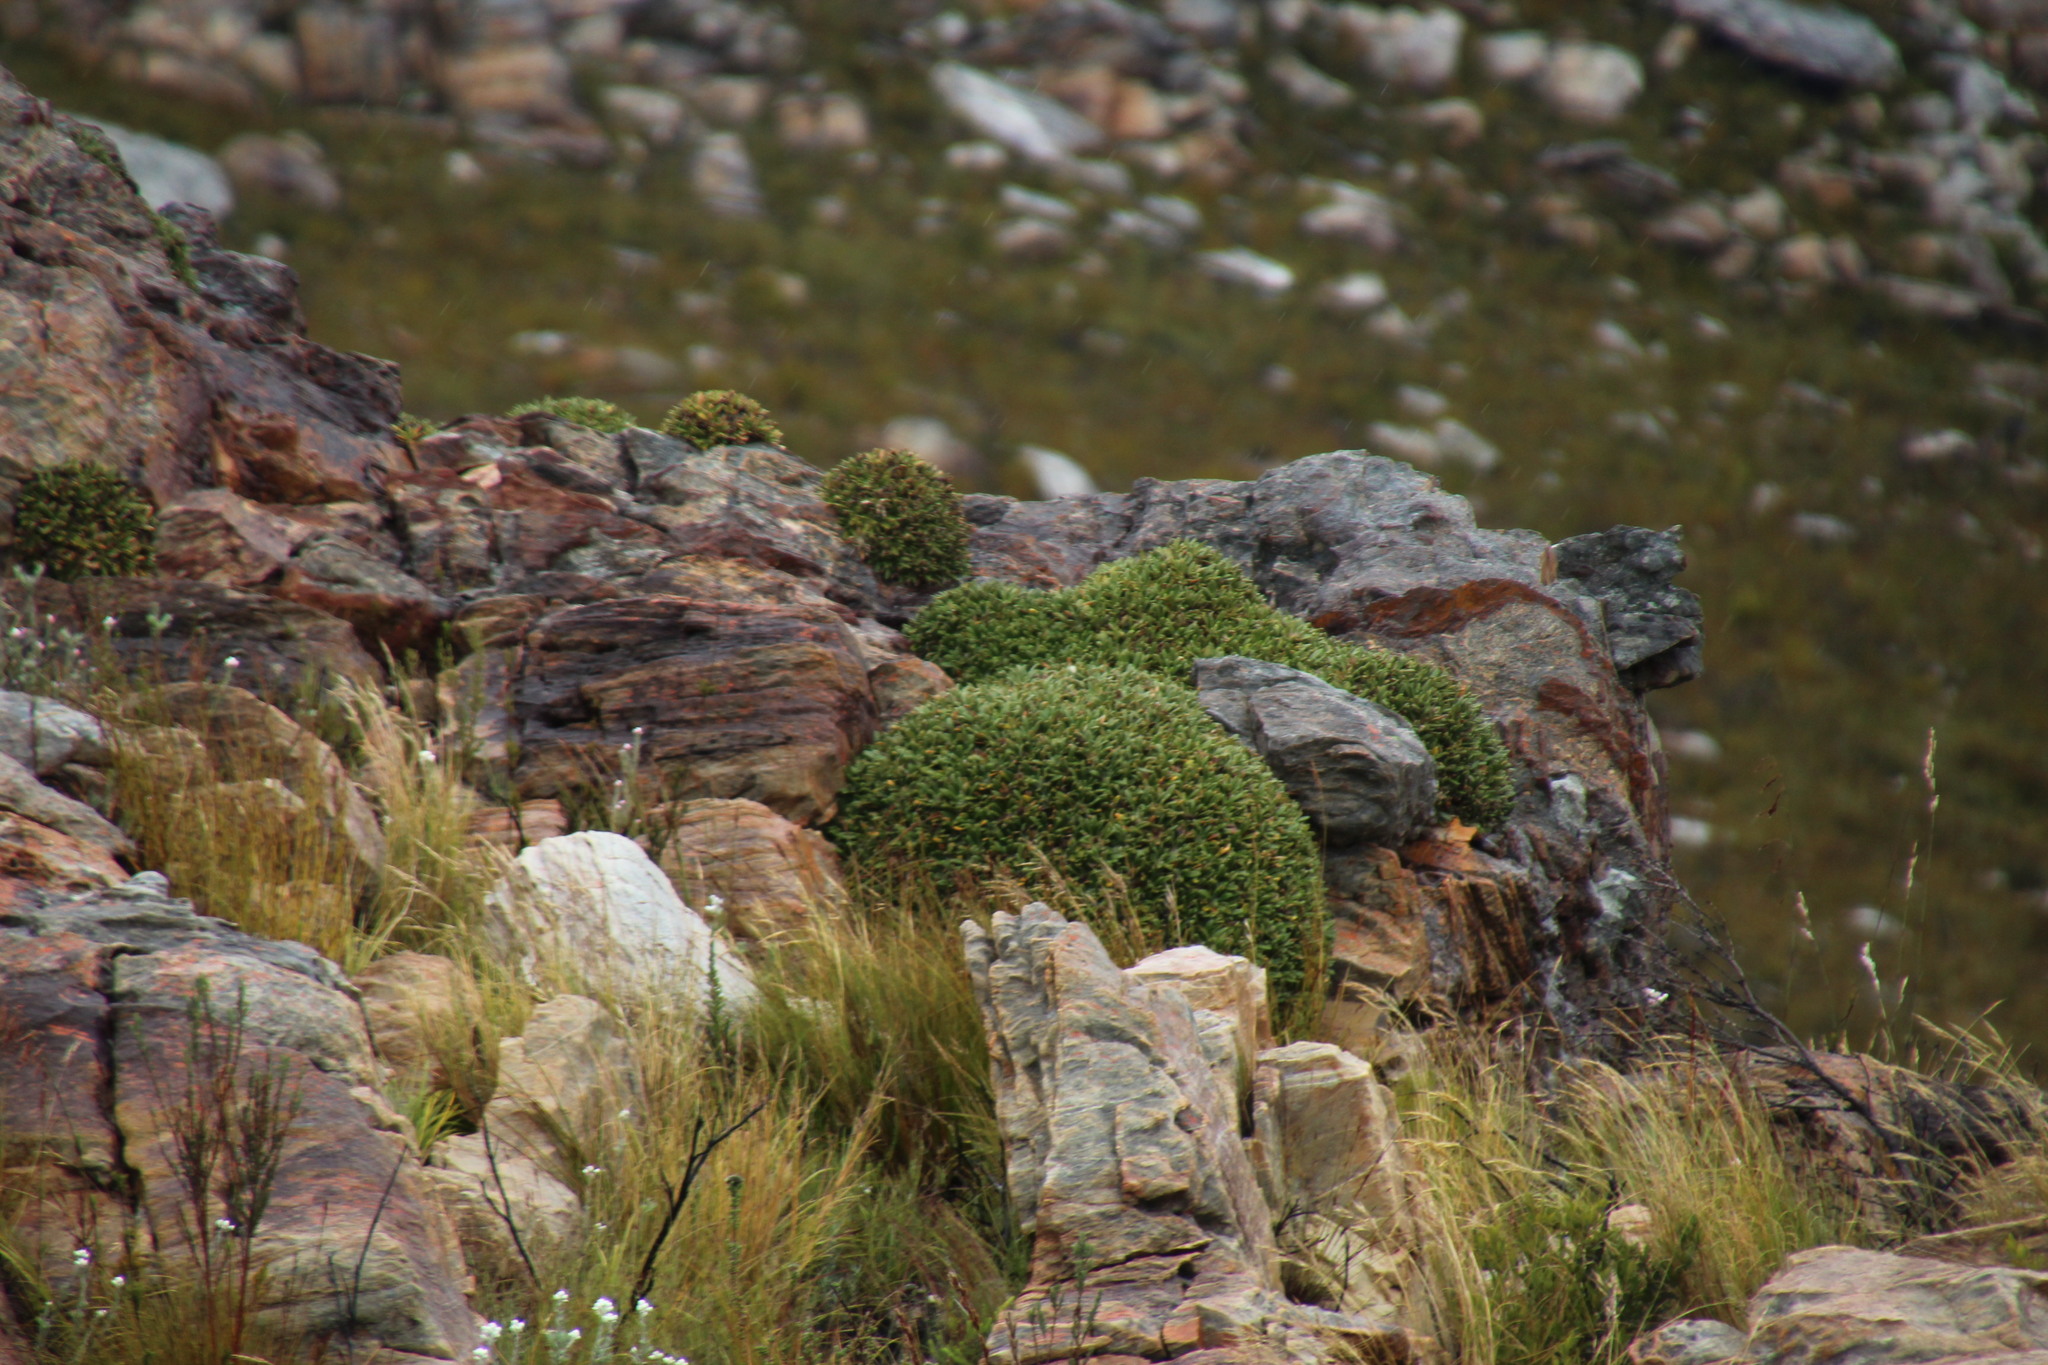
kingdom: Plantae
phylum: Tracheophyta
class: Magnoliopsida
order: Asterales
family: Asteraceae
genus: Oldenburgia
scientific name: Oldenburgia paradoxa
